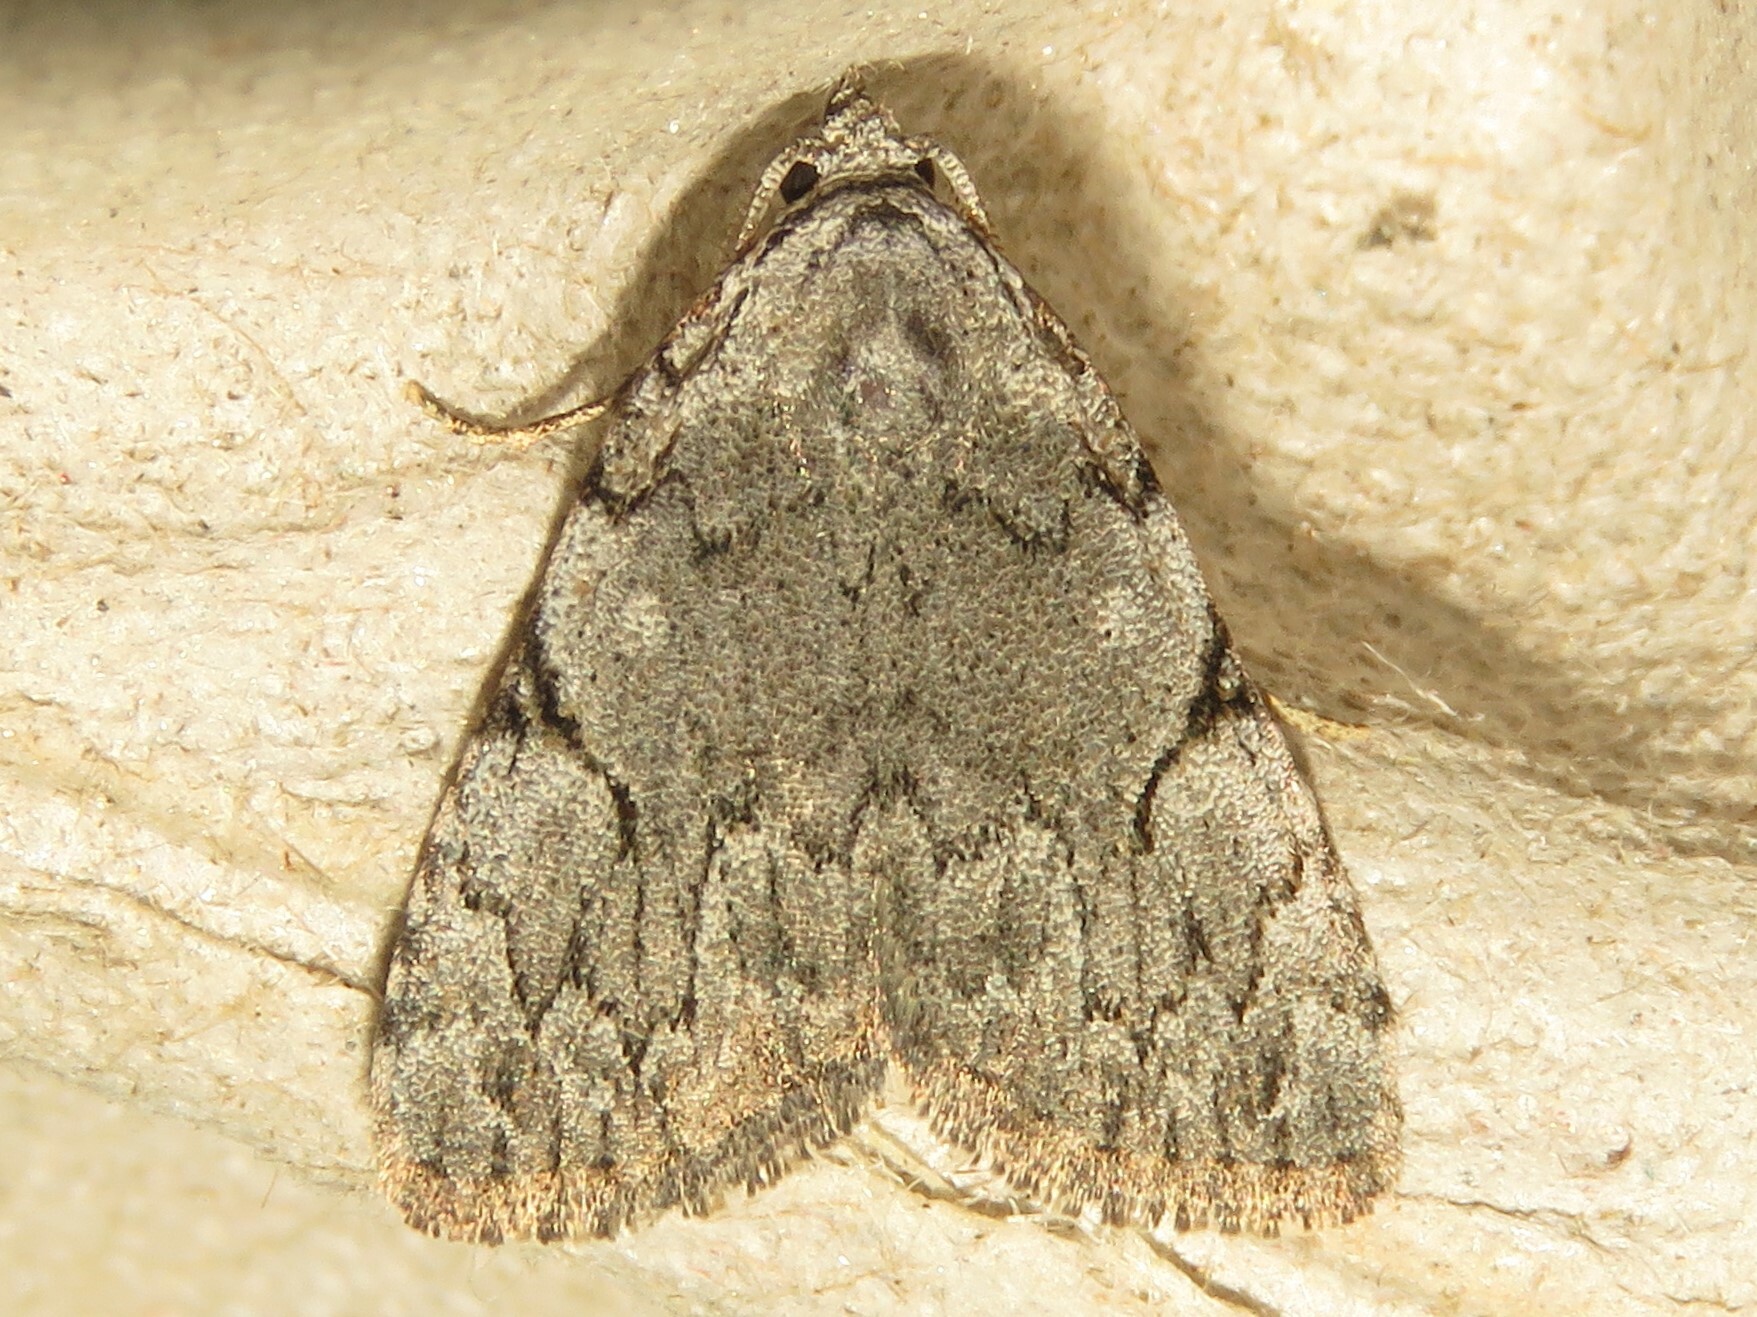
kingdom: Animalia
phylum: Arthropoda
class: Insecta
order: Lepidoptera
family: Noctuidae
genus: Balsa
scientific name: Balsa malana
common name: Many-dotted appleworm moth
